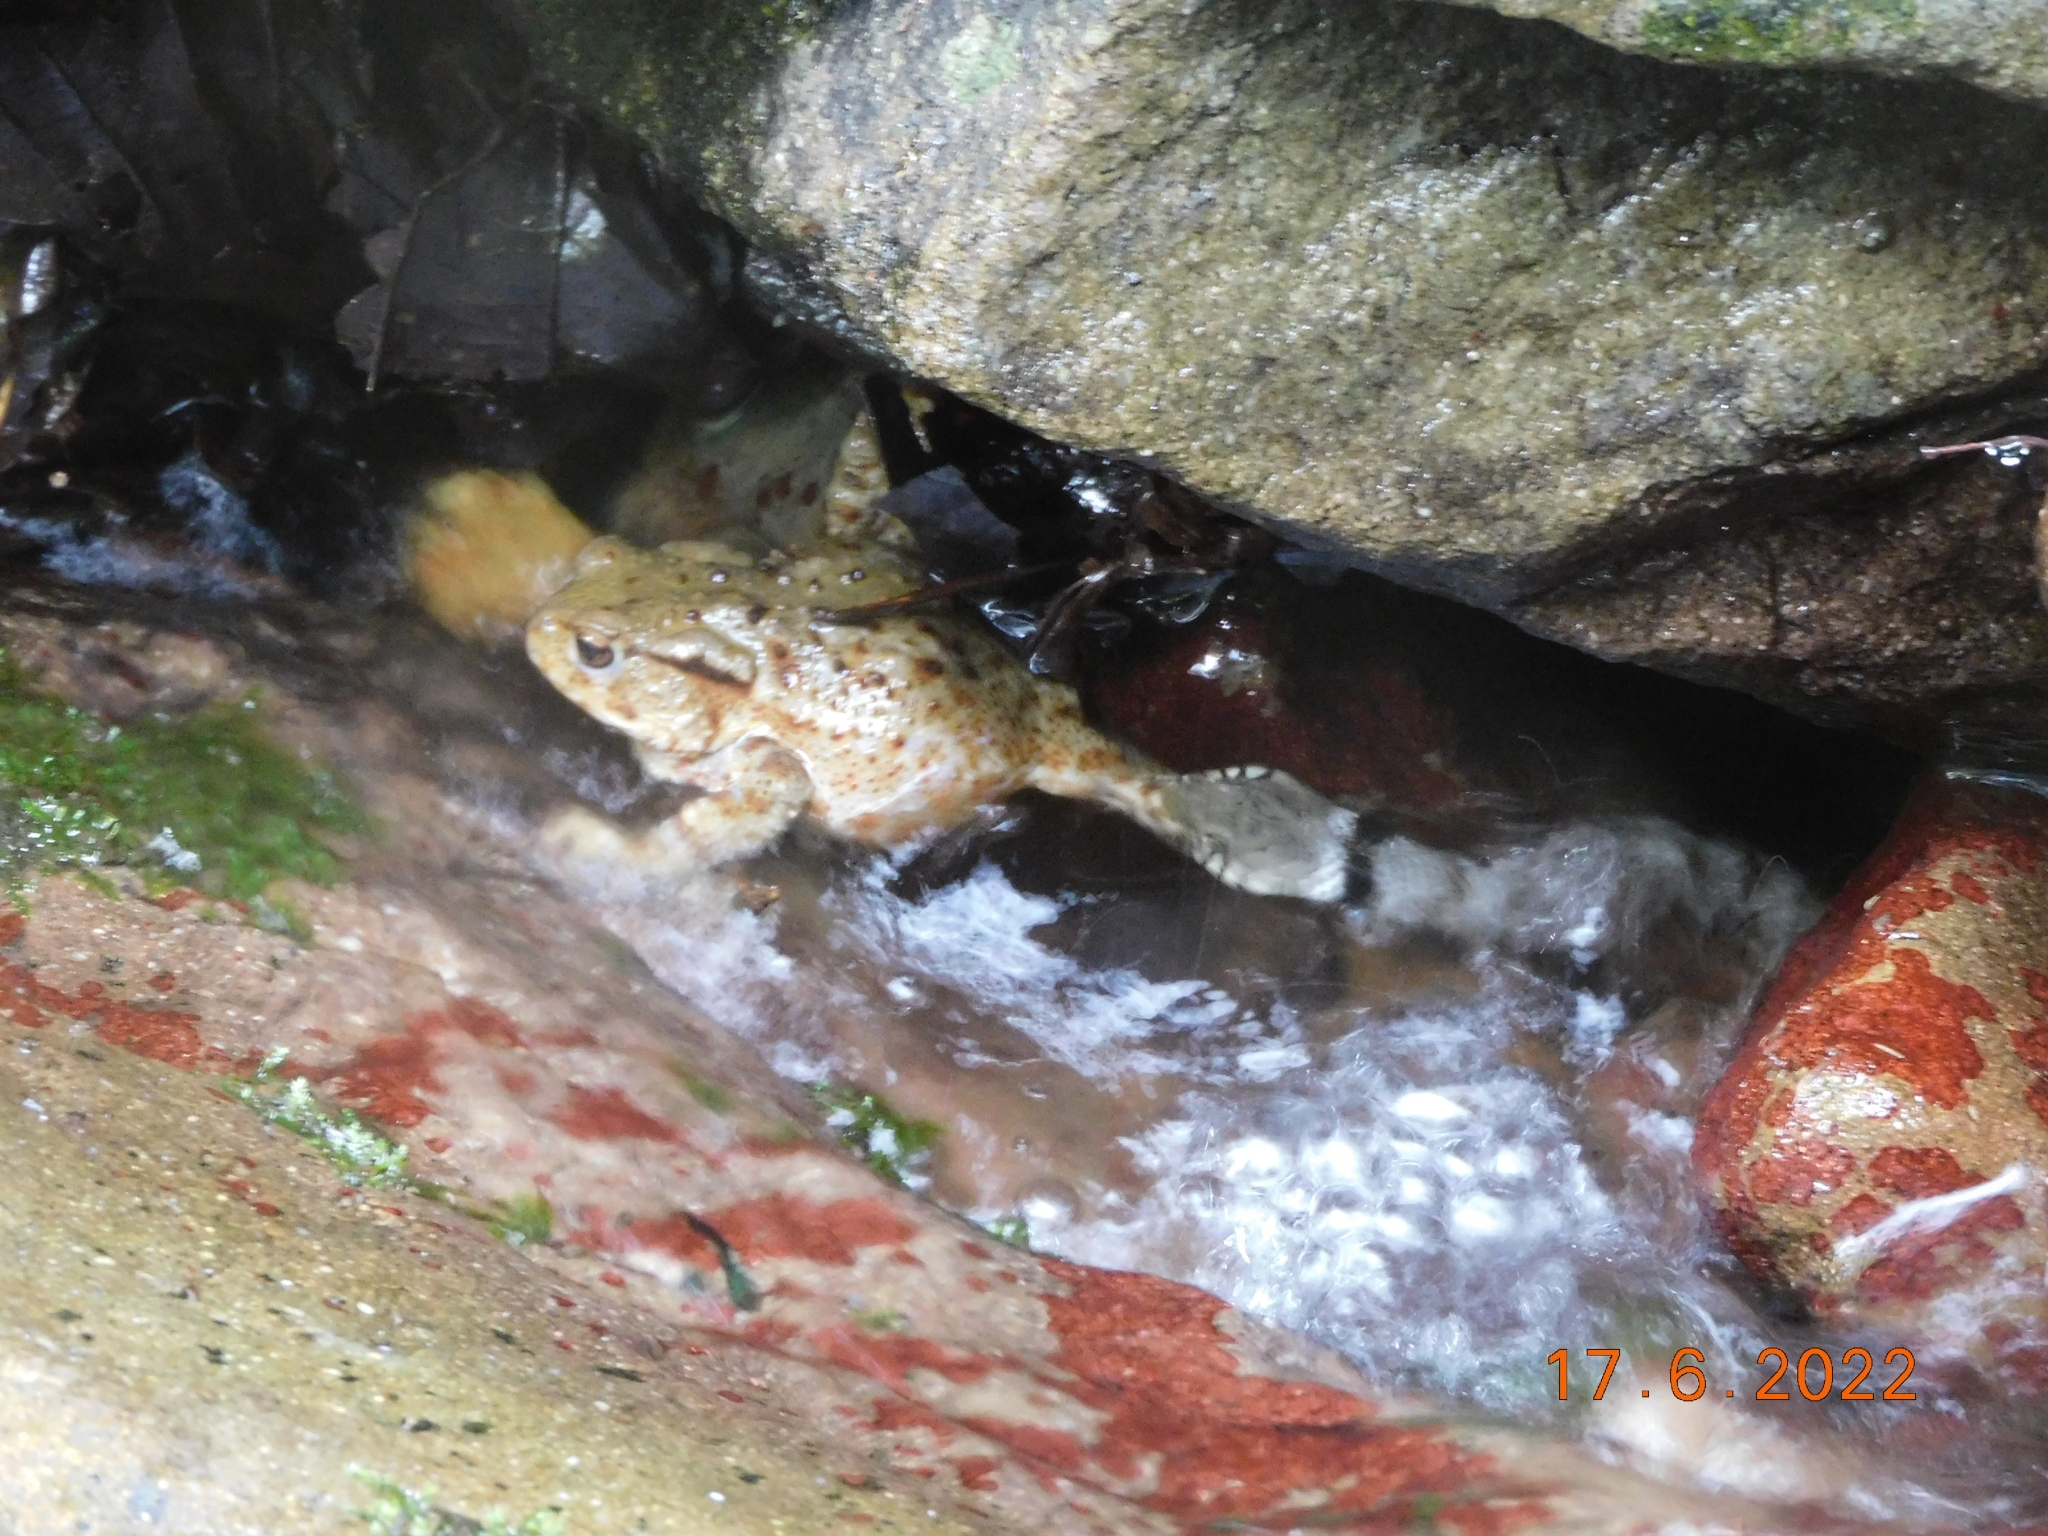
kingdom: Animalia
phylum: Chordata
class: Amphibia
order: Anura
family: Bufonidae
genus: Bufo
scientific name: Bufo bufo
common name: Common toad
